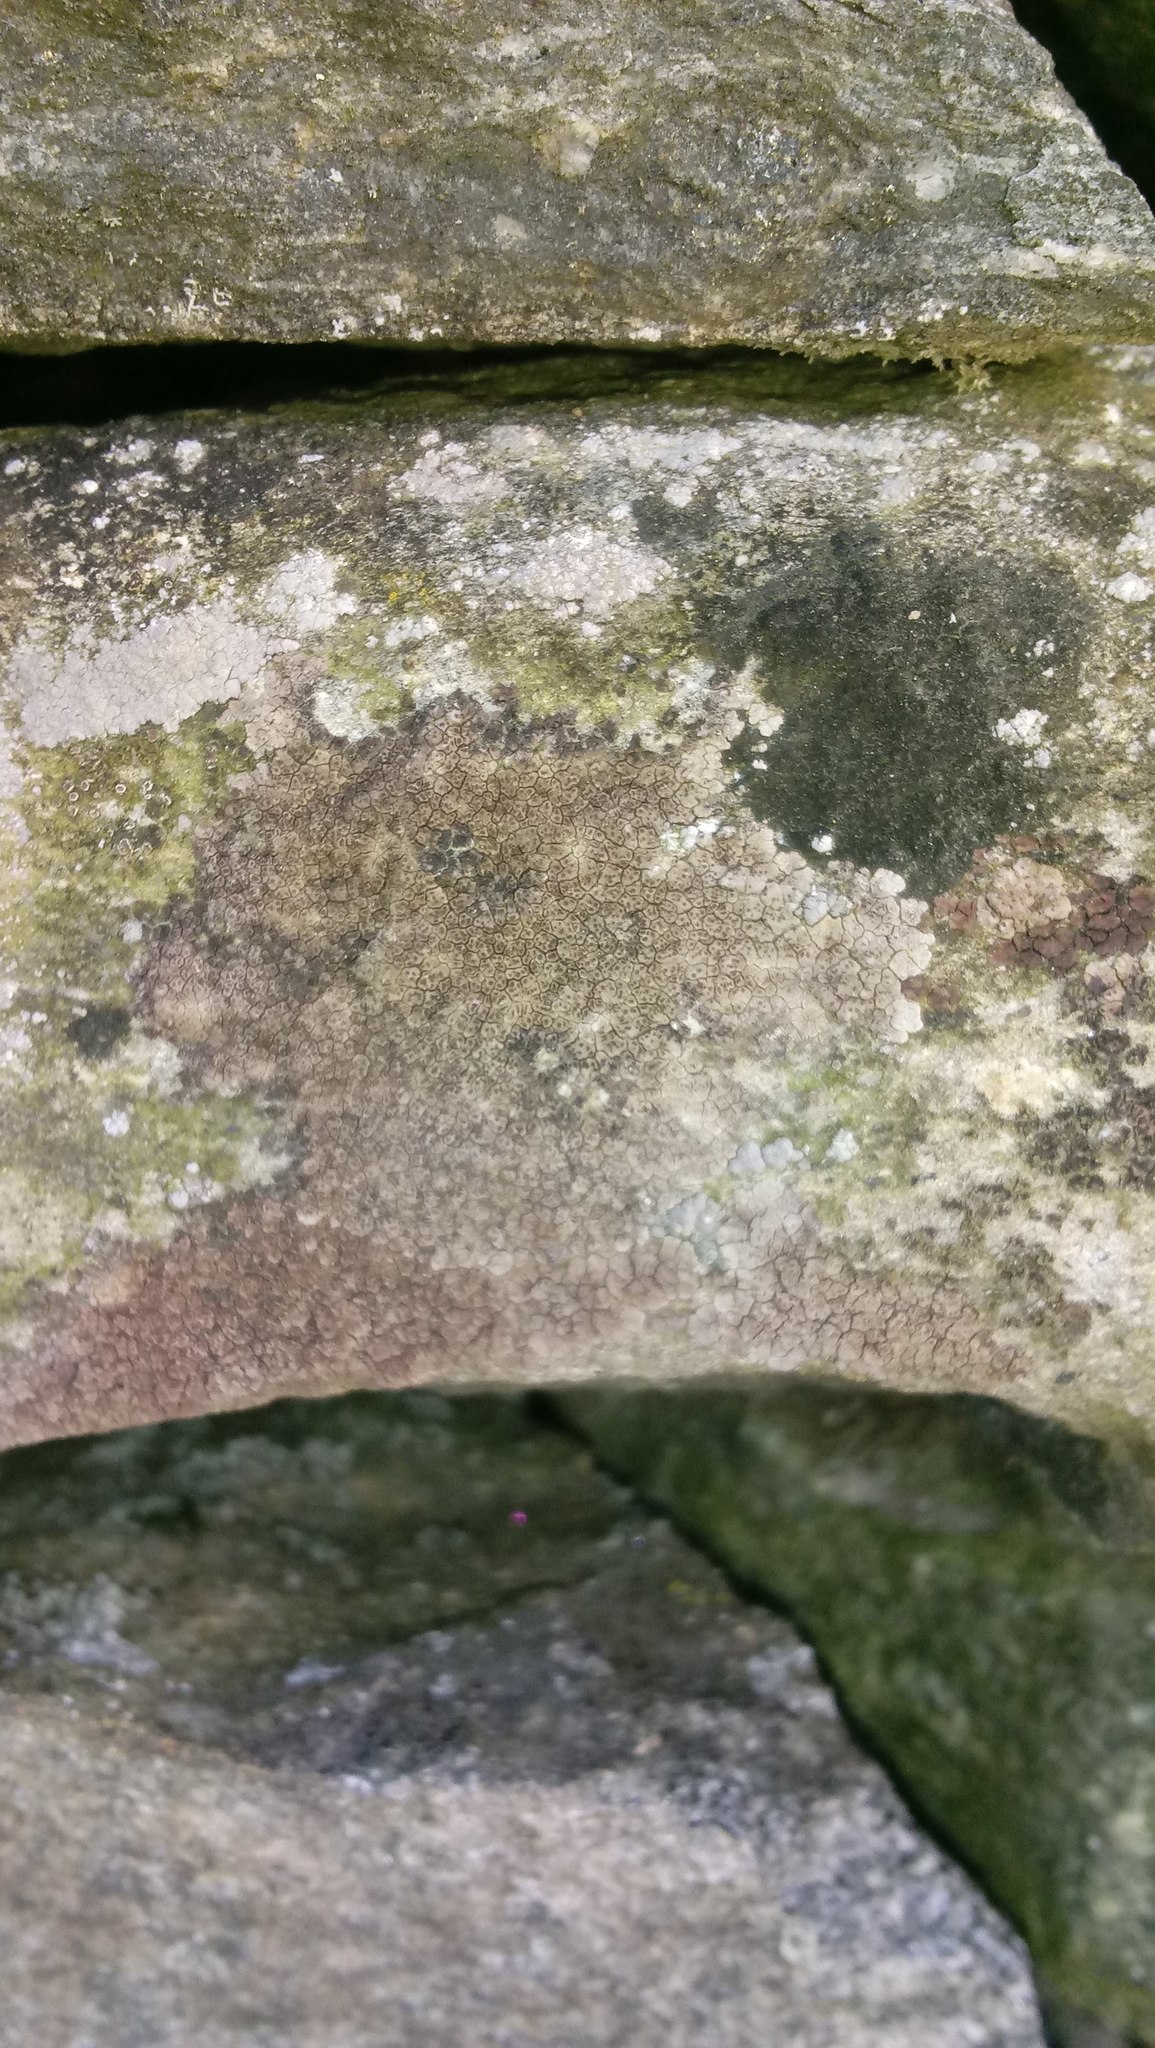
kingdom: Fungi
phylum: Ascomycota
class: Lecanoromycetes
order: Acarosporales
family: Acarosporaceae
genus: Acarospora
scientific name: Acarospora fuscata
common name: Brown cobblestone lichen
